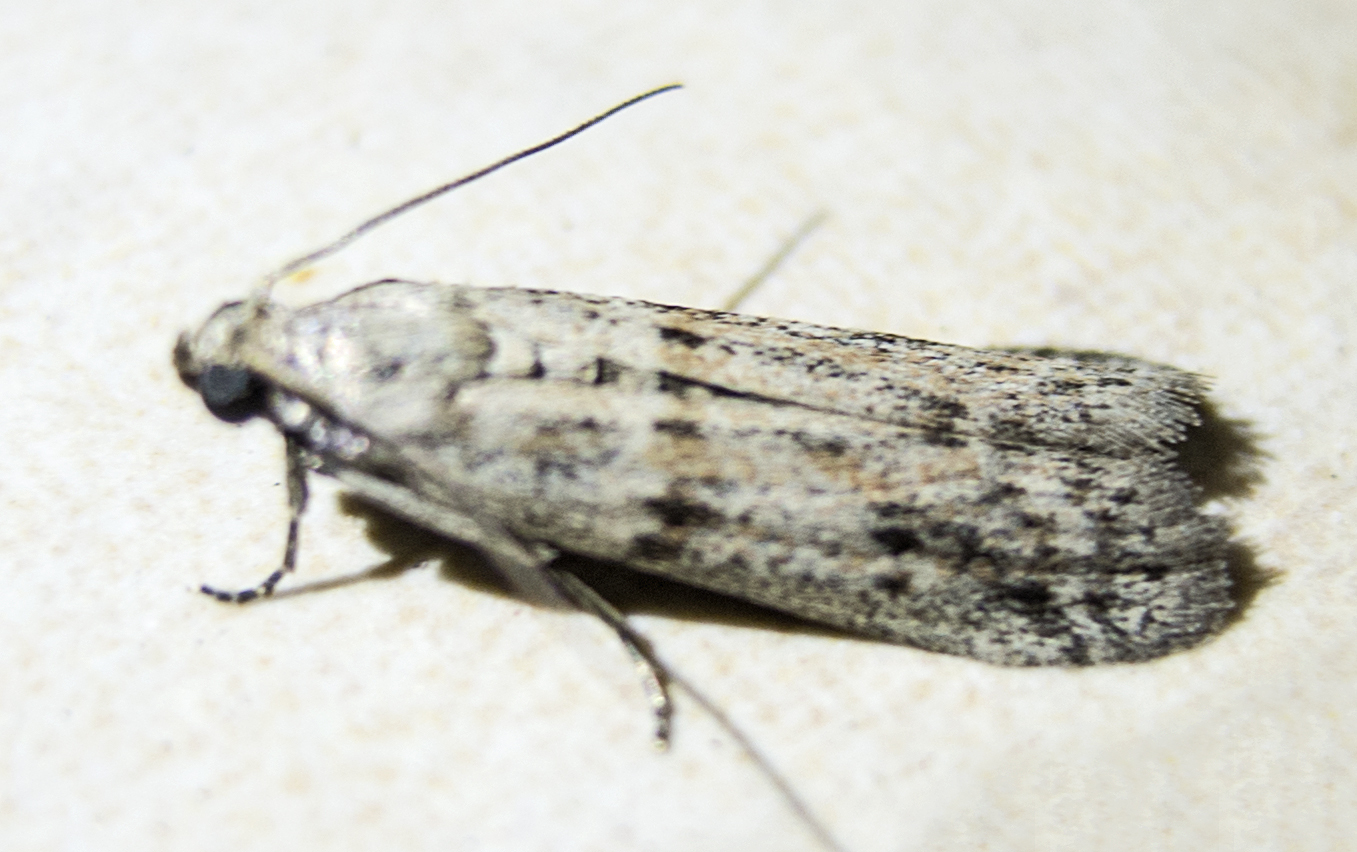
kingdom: Animalia
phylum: Arthropoda
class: Insecta
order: Lepidoptera
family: Pyralidae
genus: Cadra
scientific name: Cadra
